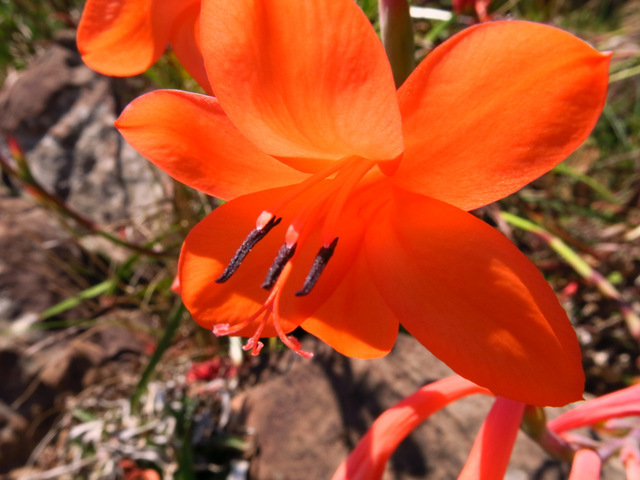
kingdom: Plantae
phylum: Tracheophyta
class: Liliopsida
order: Asparagales
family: Iridaceae
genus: Watsonia
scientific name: Watsonia pillansii
